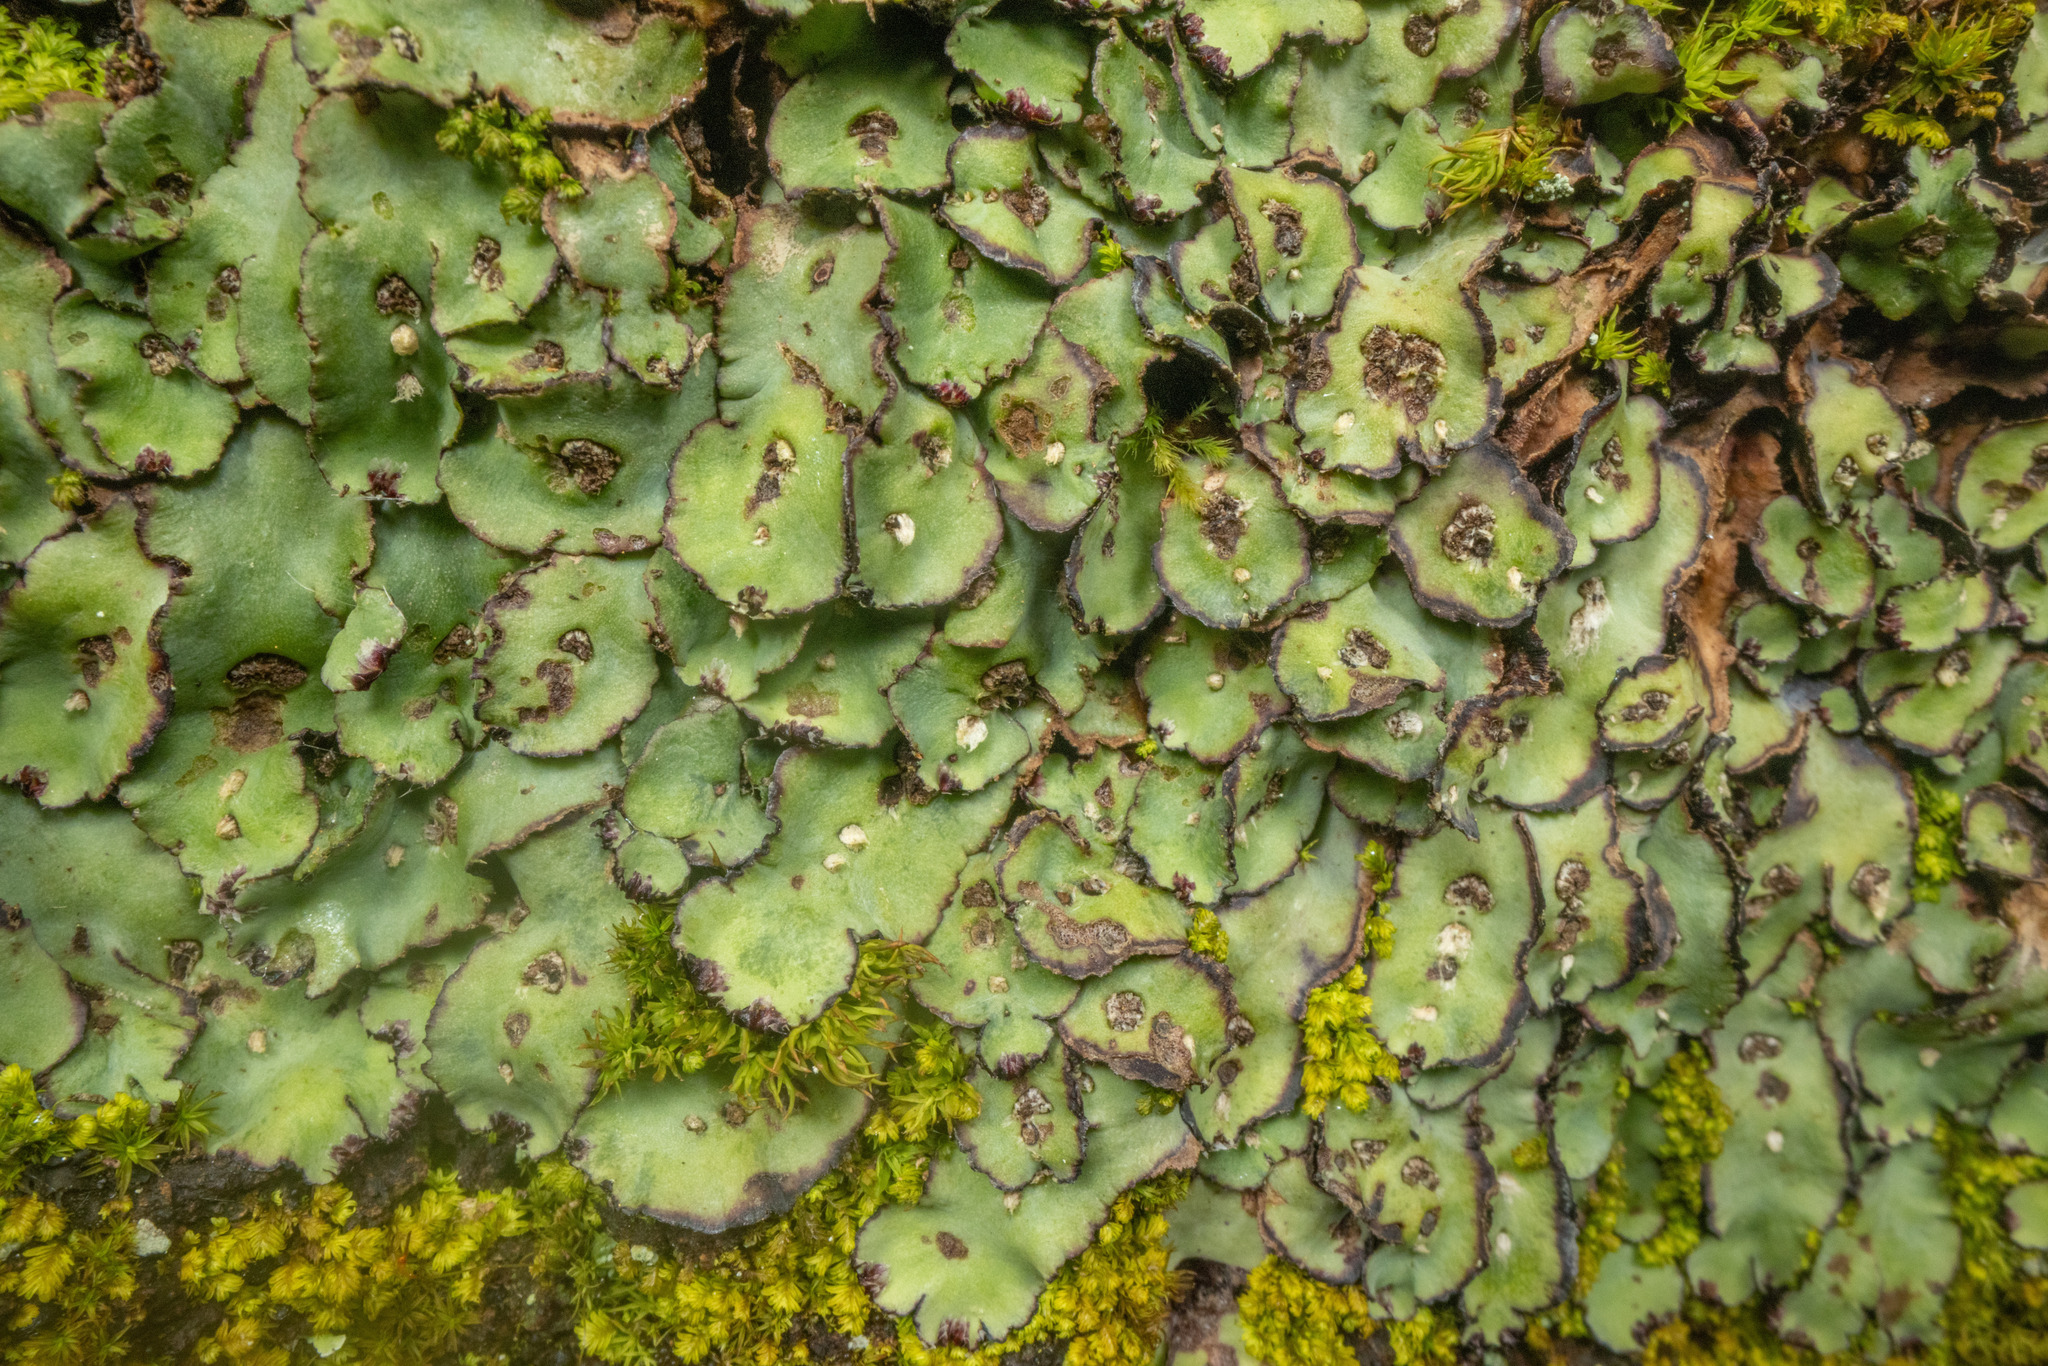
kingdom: Plantae
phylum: Marchantiophyta
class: Marchantiopsida
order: Marchantiales
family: Aytoniaceae
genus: Plagiochasma
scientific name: Plagiochasma rupestre
